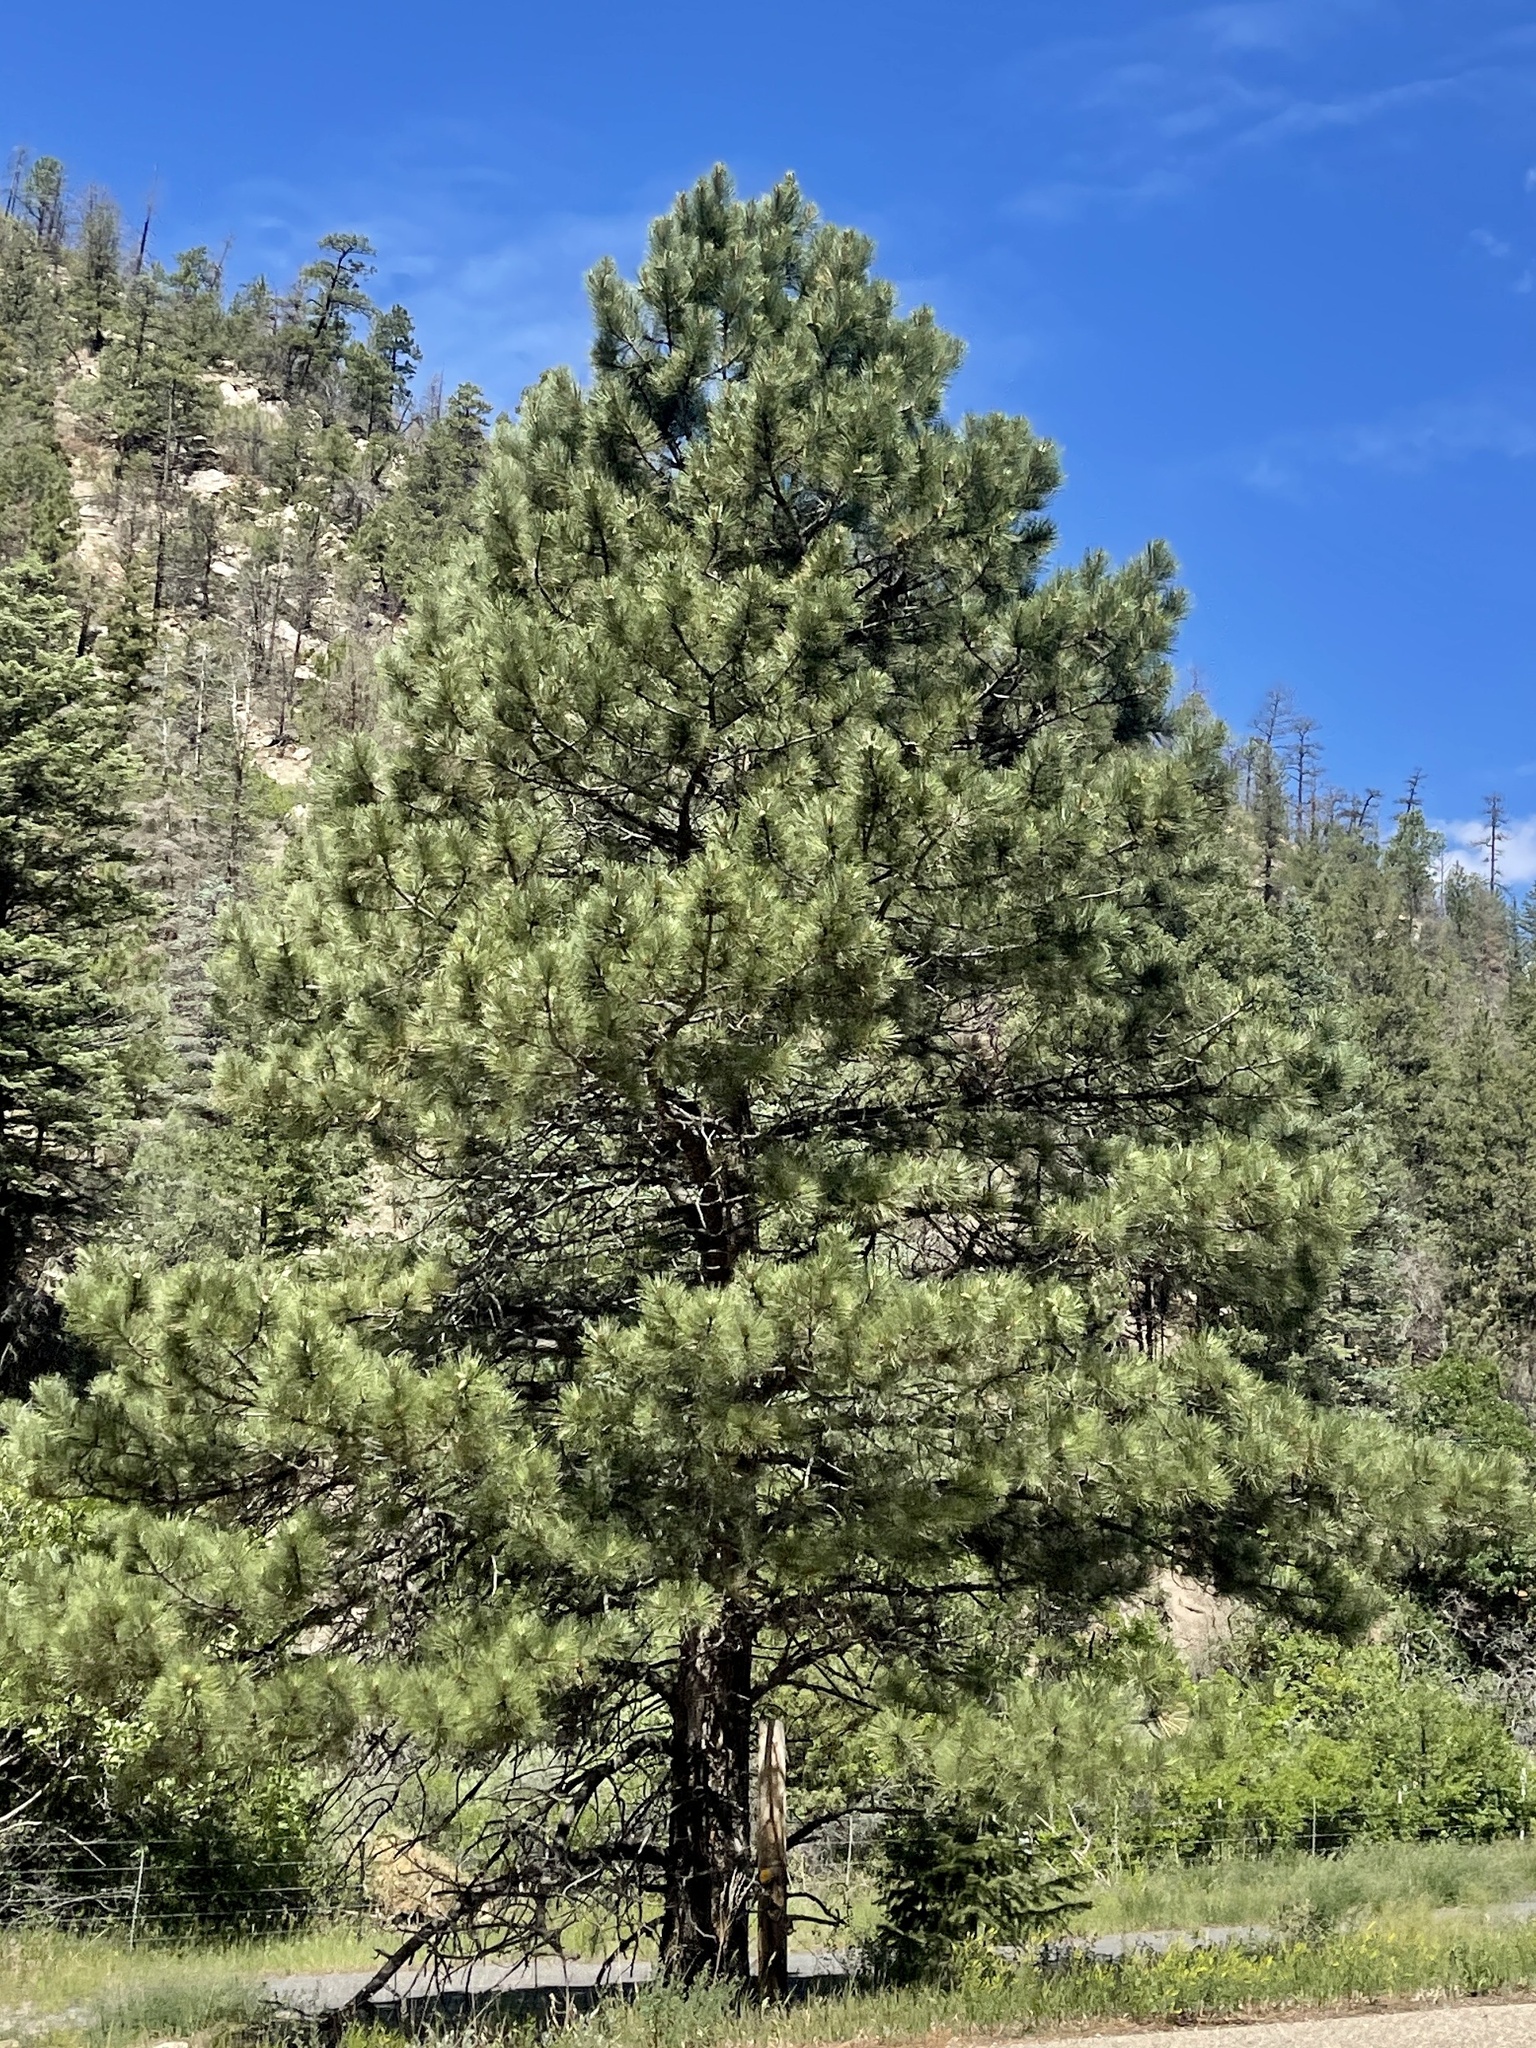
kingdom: Plantae
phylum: Tracheophyta
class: Pinopsida
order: Pinales
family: Pinaceae
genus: Pinus
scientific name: Pinus ponderosa
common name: Western yellow-pine
